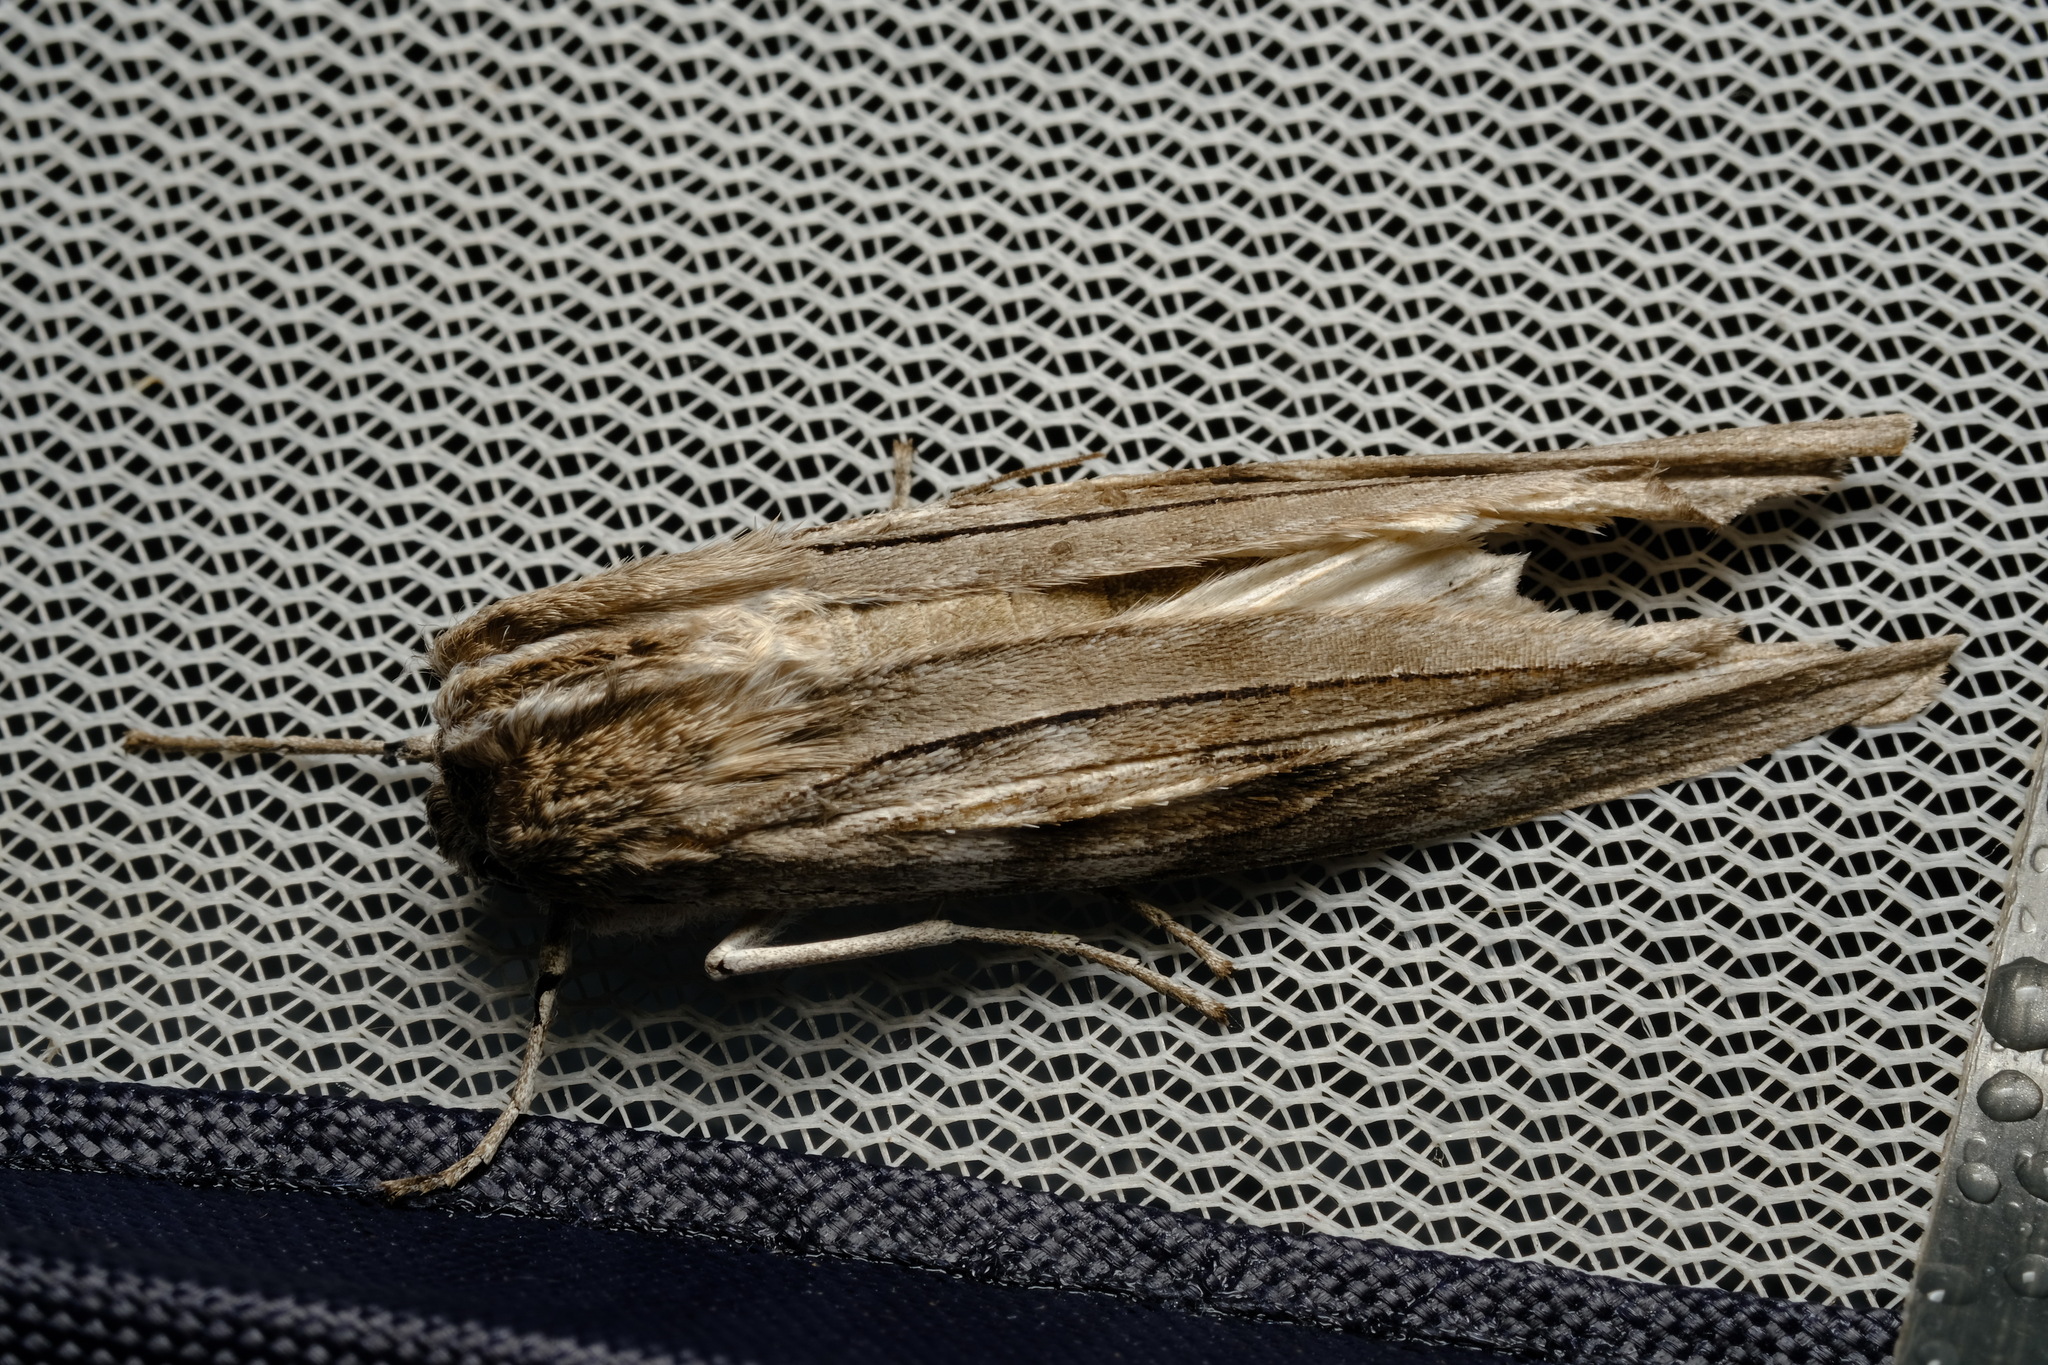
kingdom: Animalia
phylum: Arthropoda
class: Insecta
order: Lepidoptera
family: Geometridae
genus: Capusa
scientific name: Capusa cuculloides
